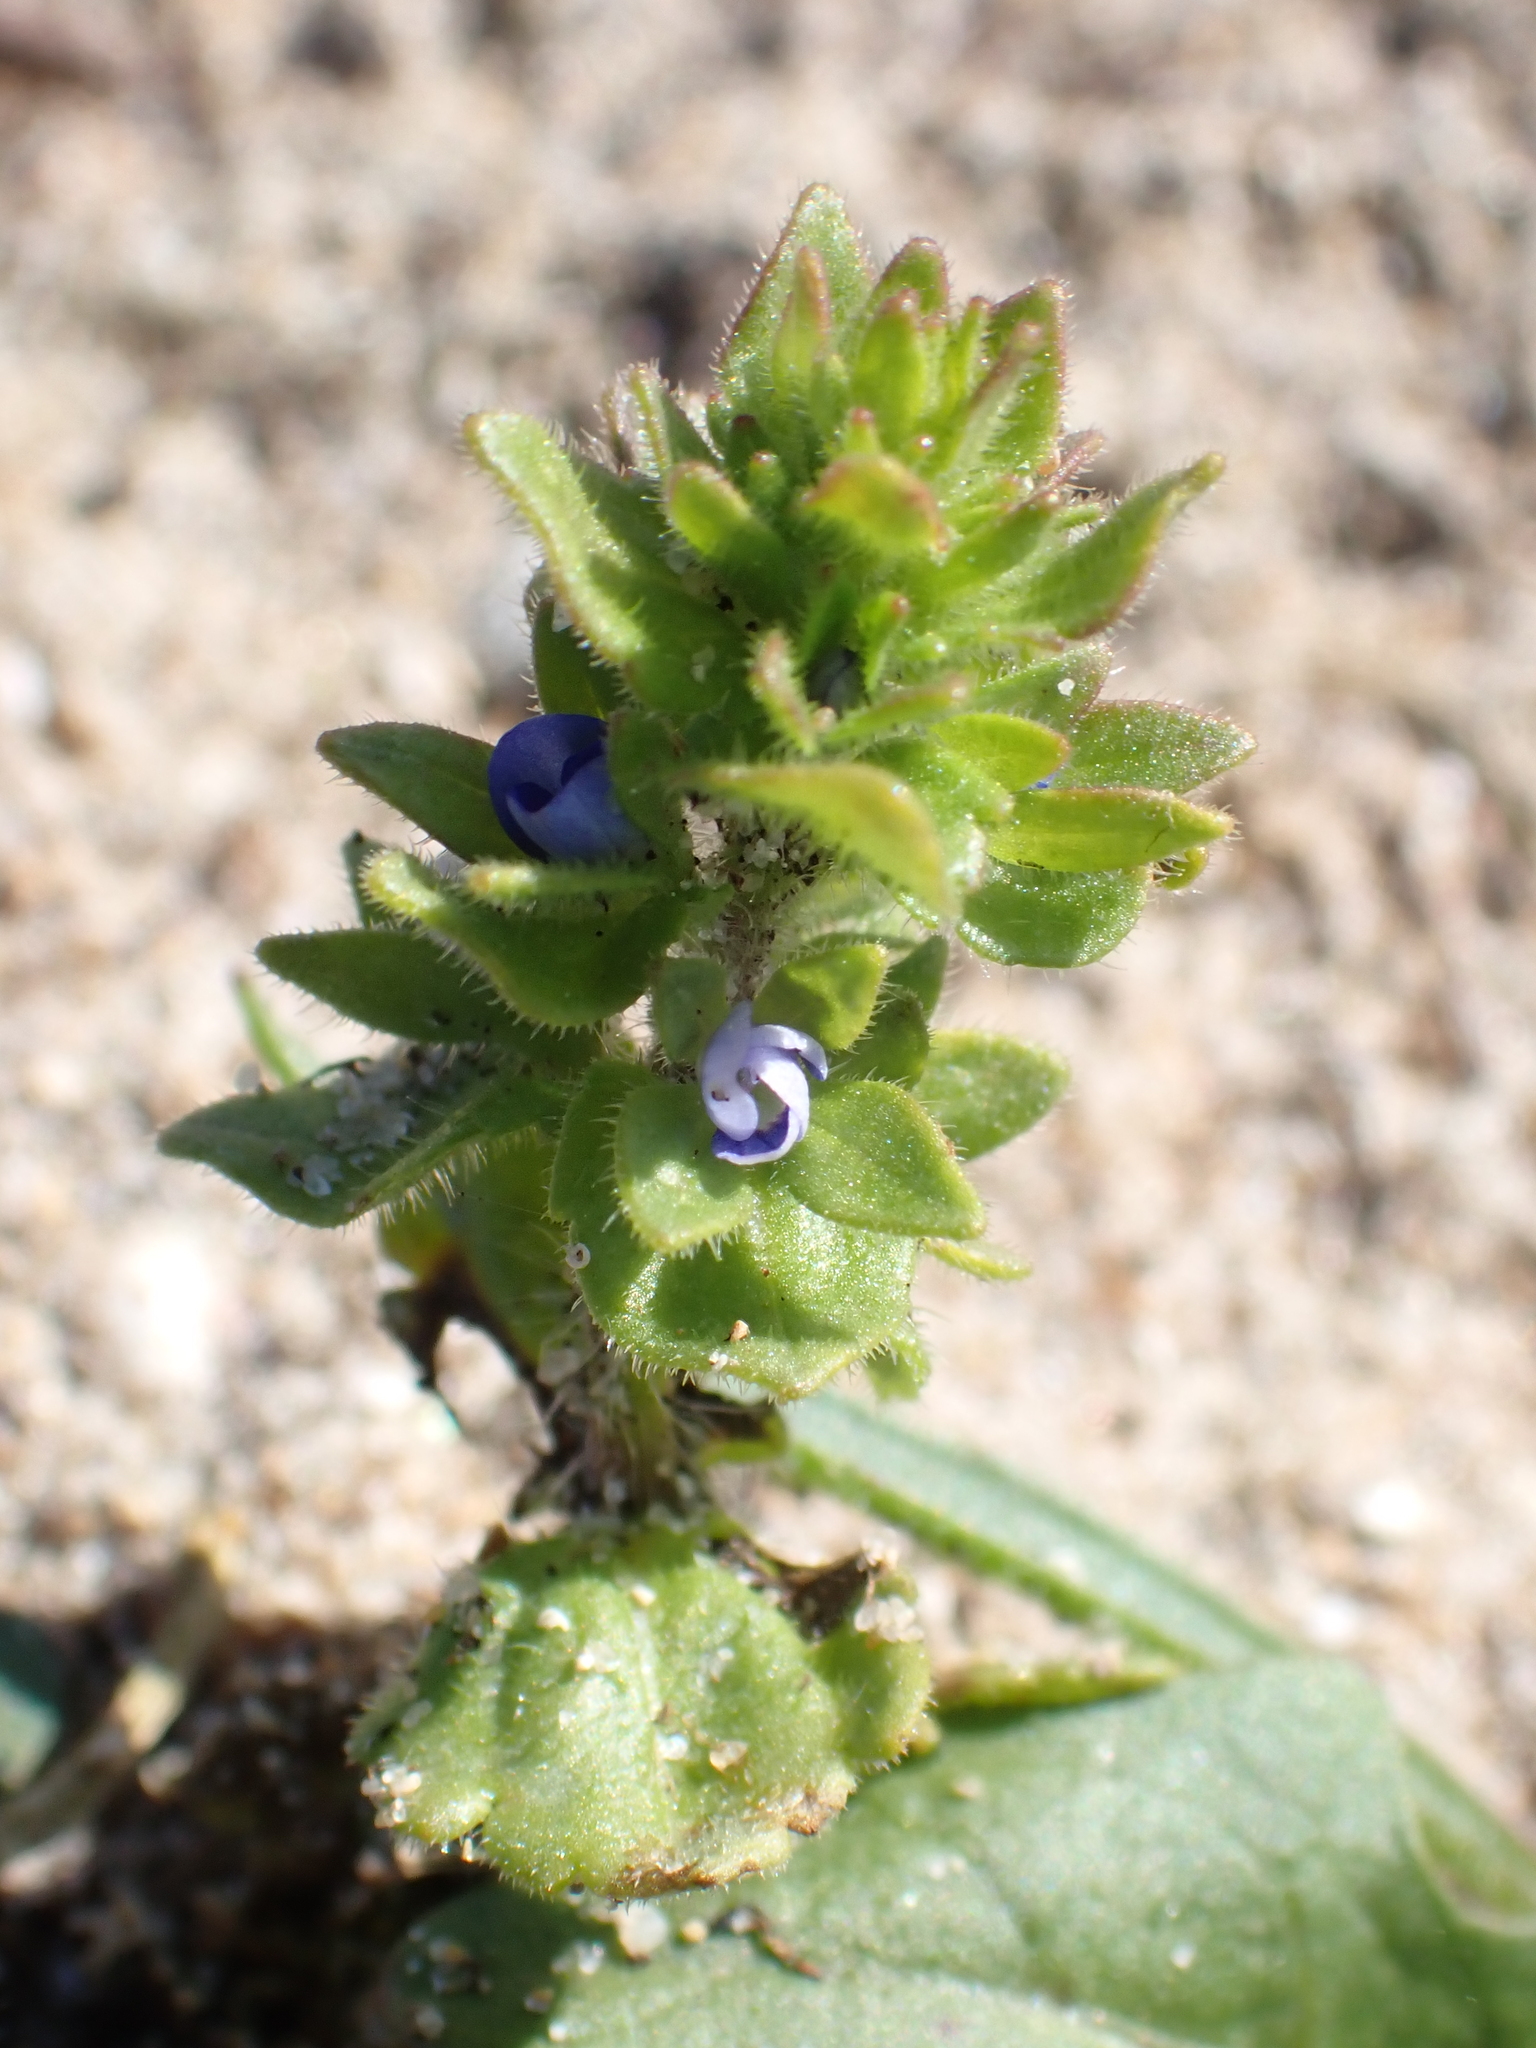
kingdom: Plantae
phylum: Tracheophyta
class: Magnoliopsida
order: Lamiales
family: Plantaginaceae
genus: Veronica
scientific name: Veronica arvensis
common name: Corn speedwell
